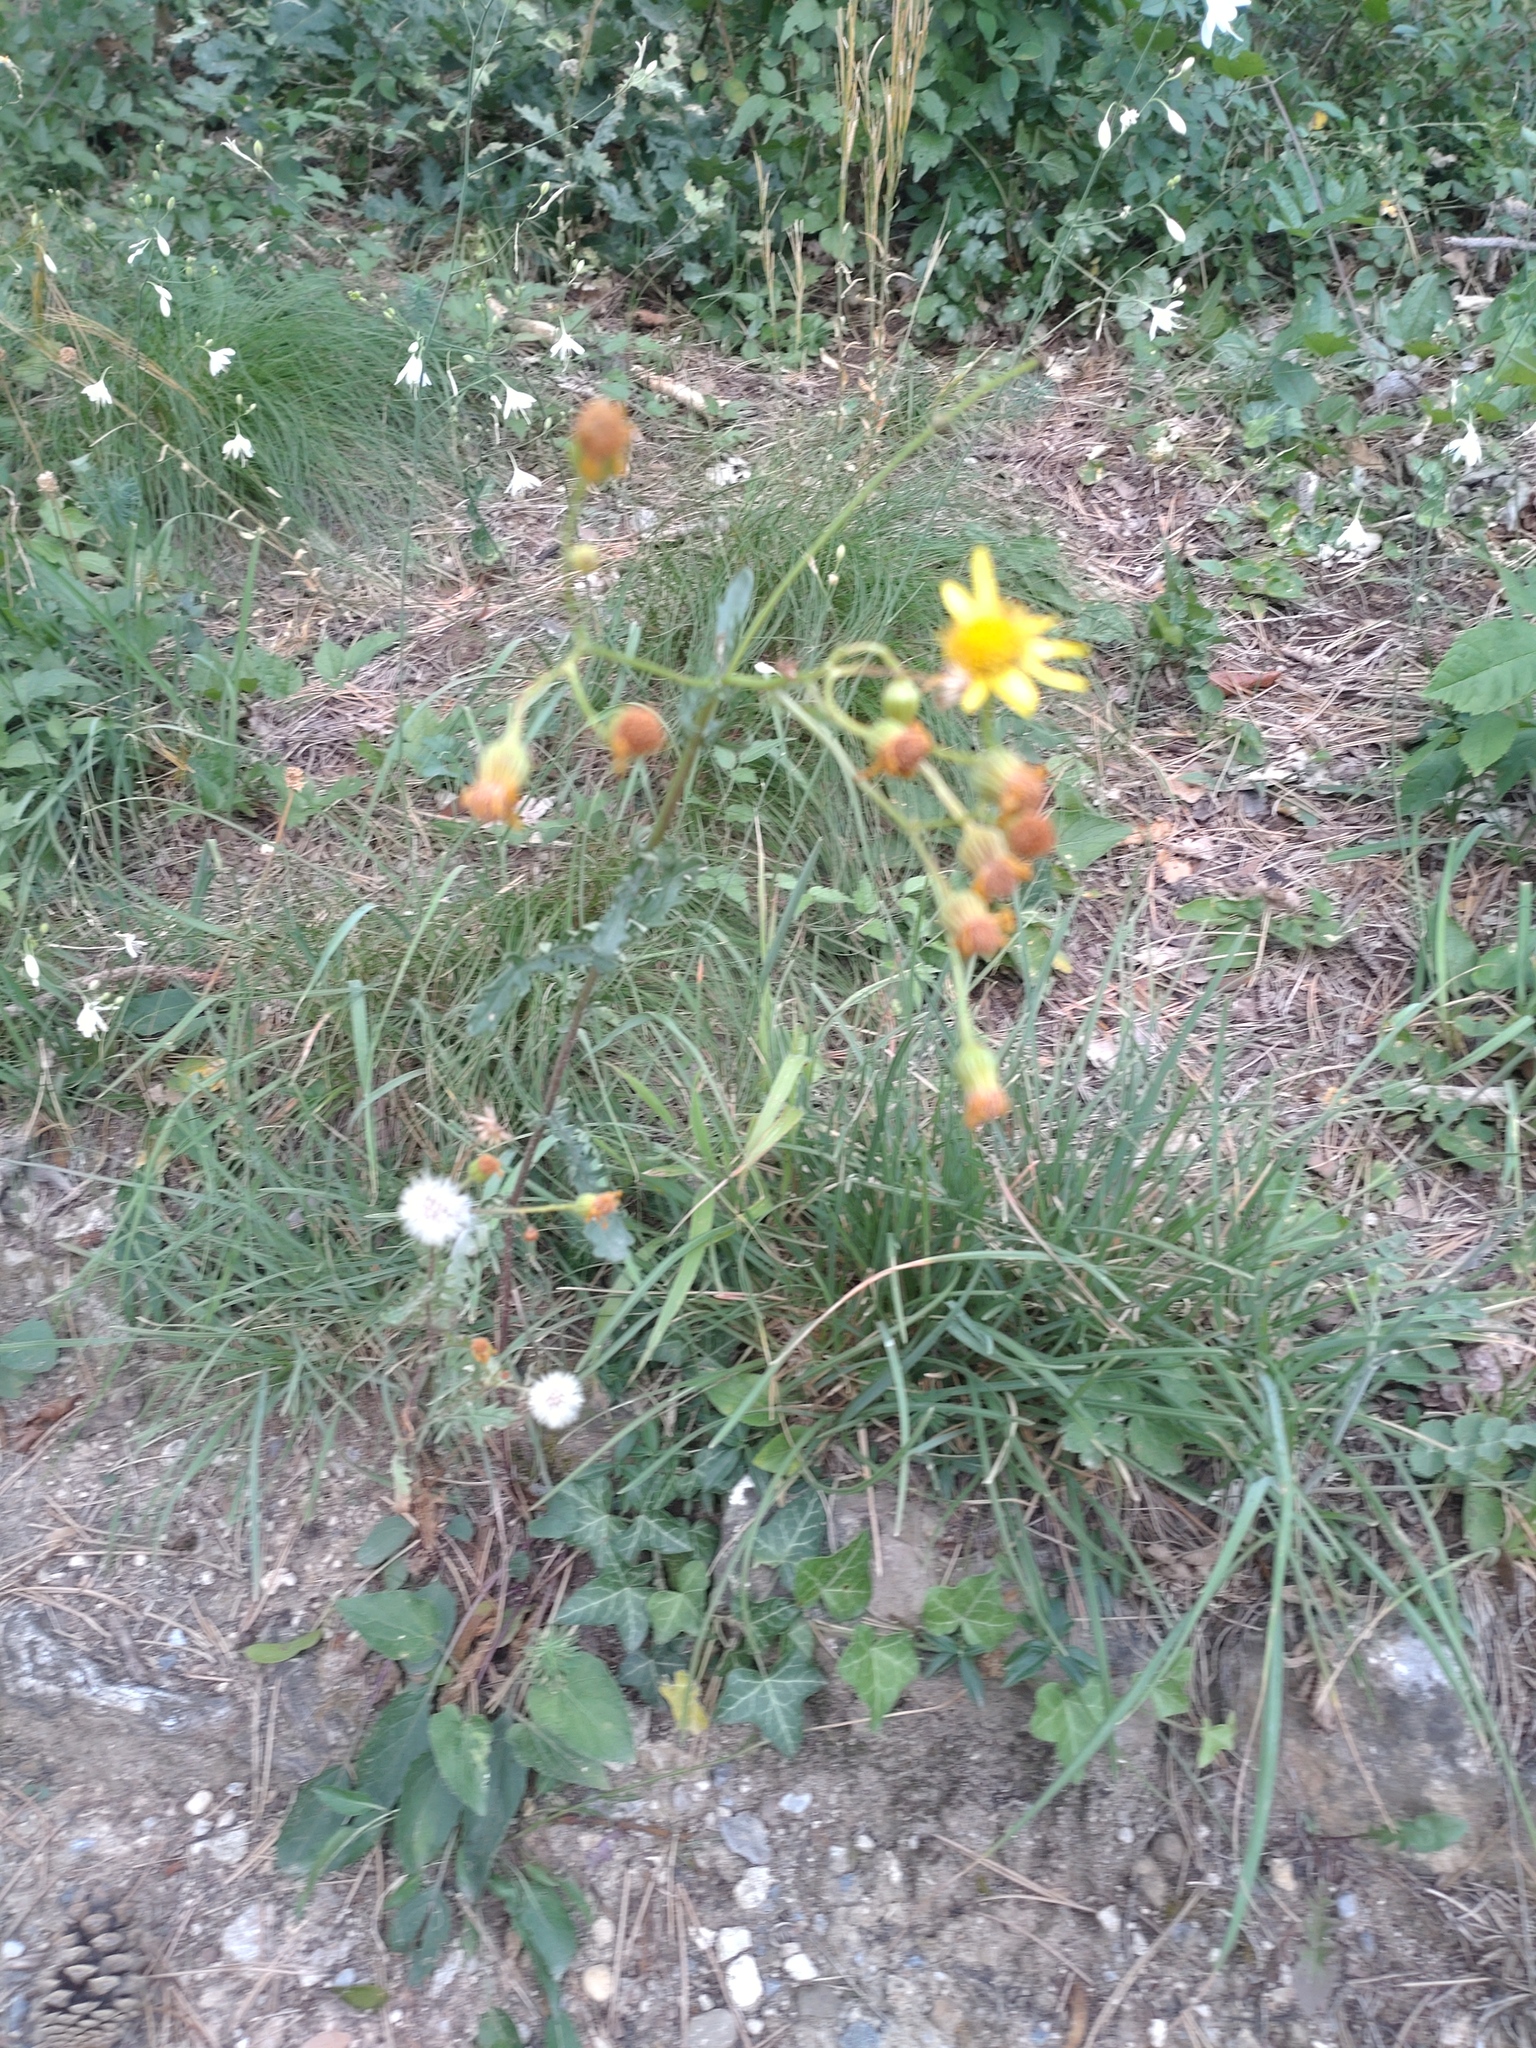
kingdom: Plantae
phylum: Tracheophyta
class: Magnoliopsida
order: Asterales
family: Asteraceae
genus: Jacobaea
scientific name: Jacobaea vulgaris
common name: Stinking willie
